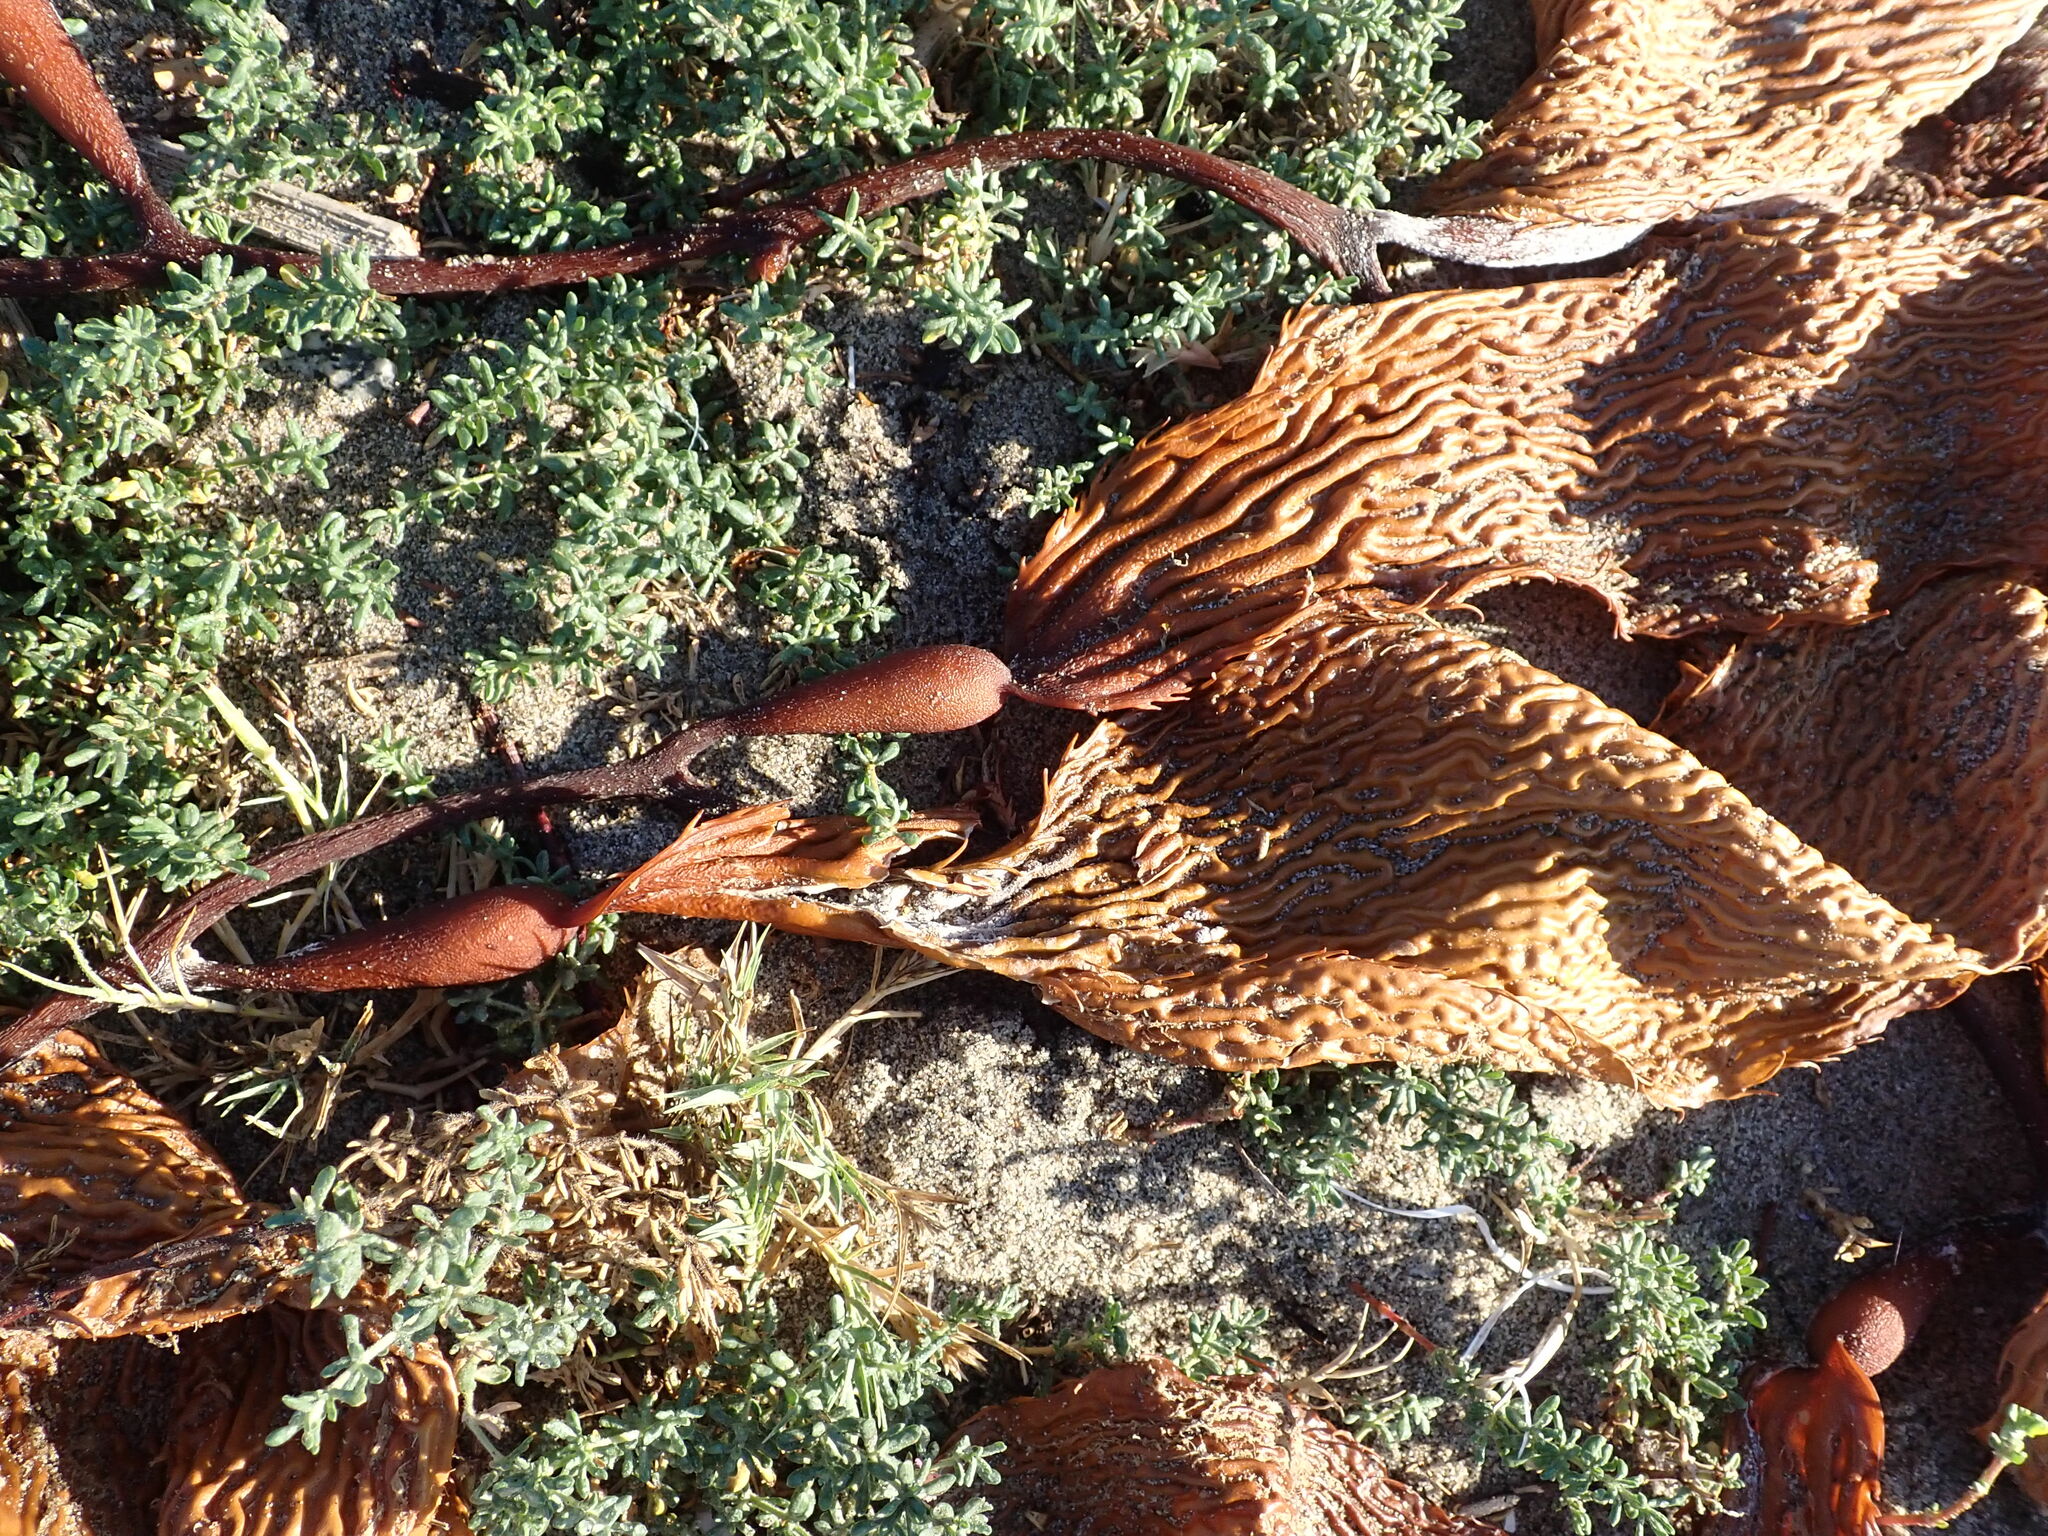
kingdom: Chromista
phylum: Ochrophyta
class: Phaeophyceae
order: Laminariales
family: Laminariaceae
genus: Macrocystis
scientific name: Macrocystis pyrifera
